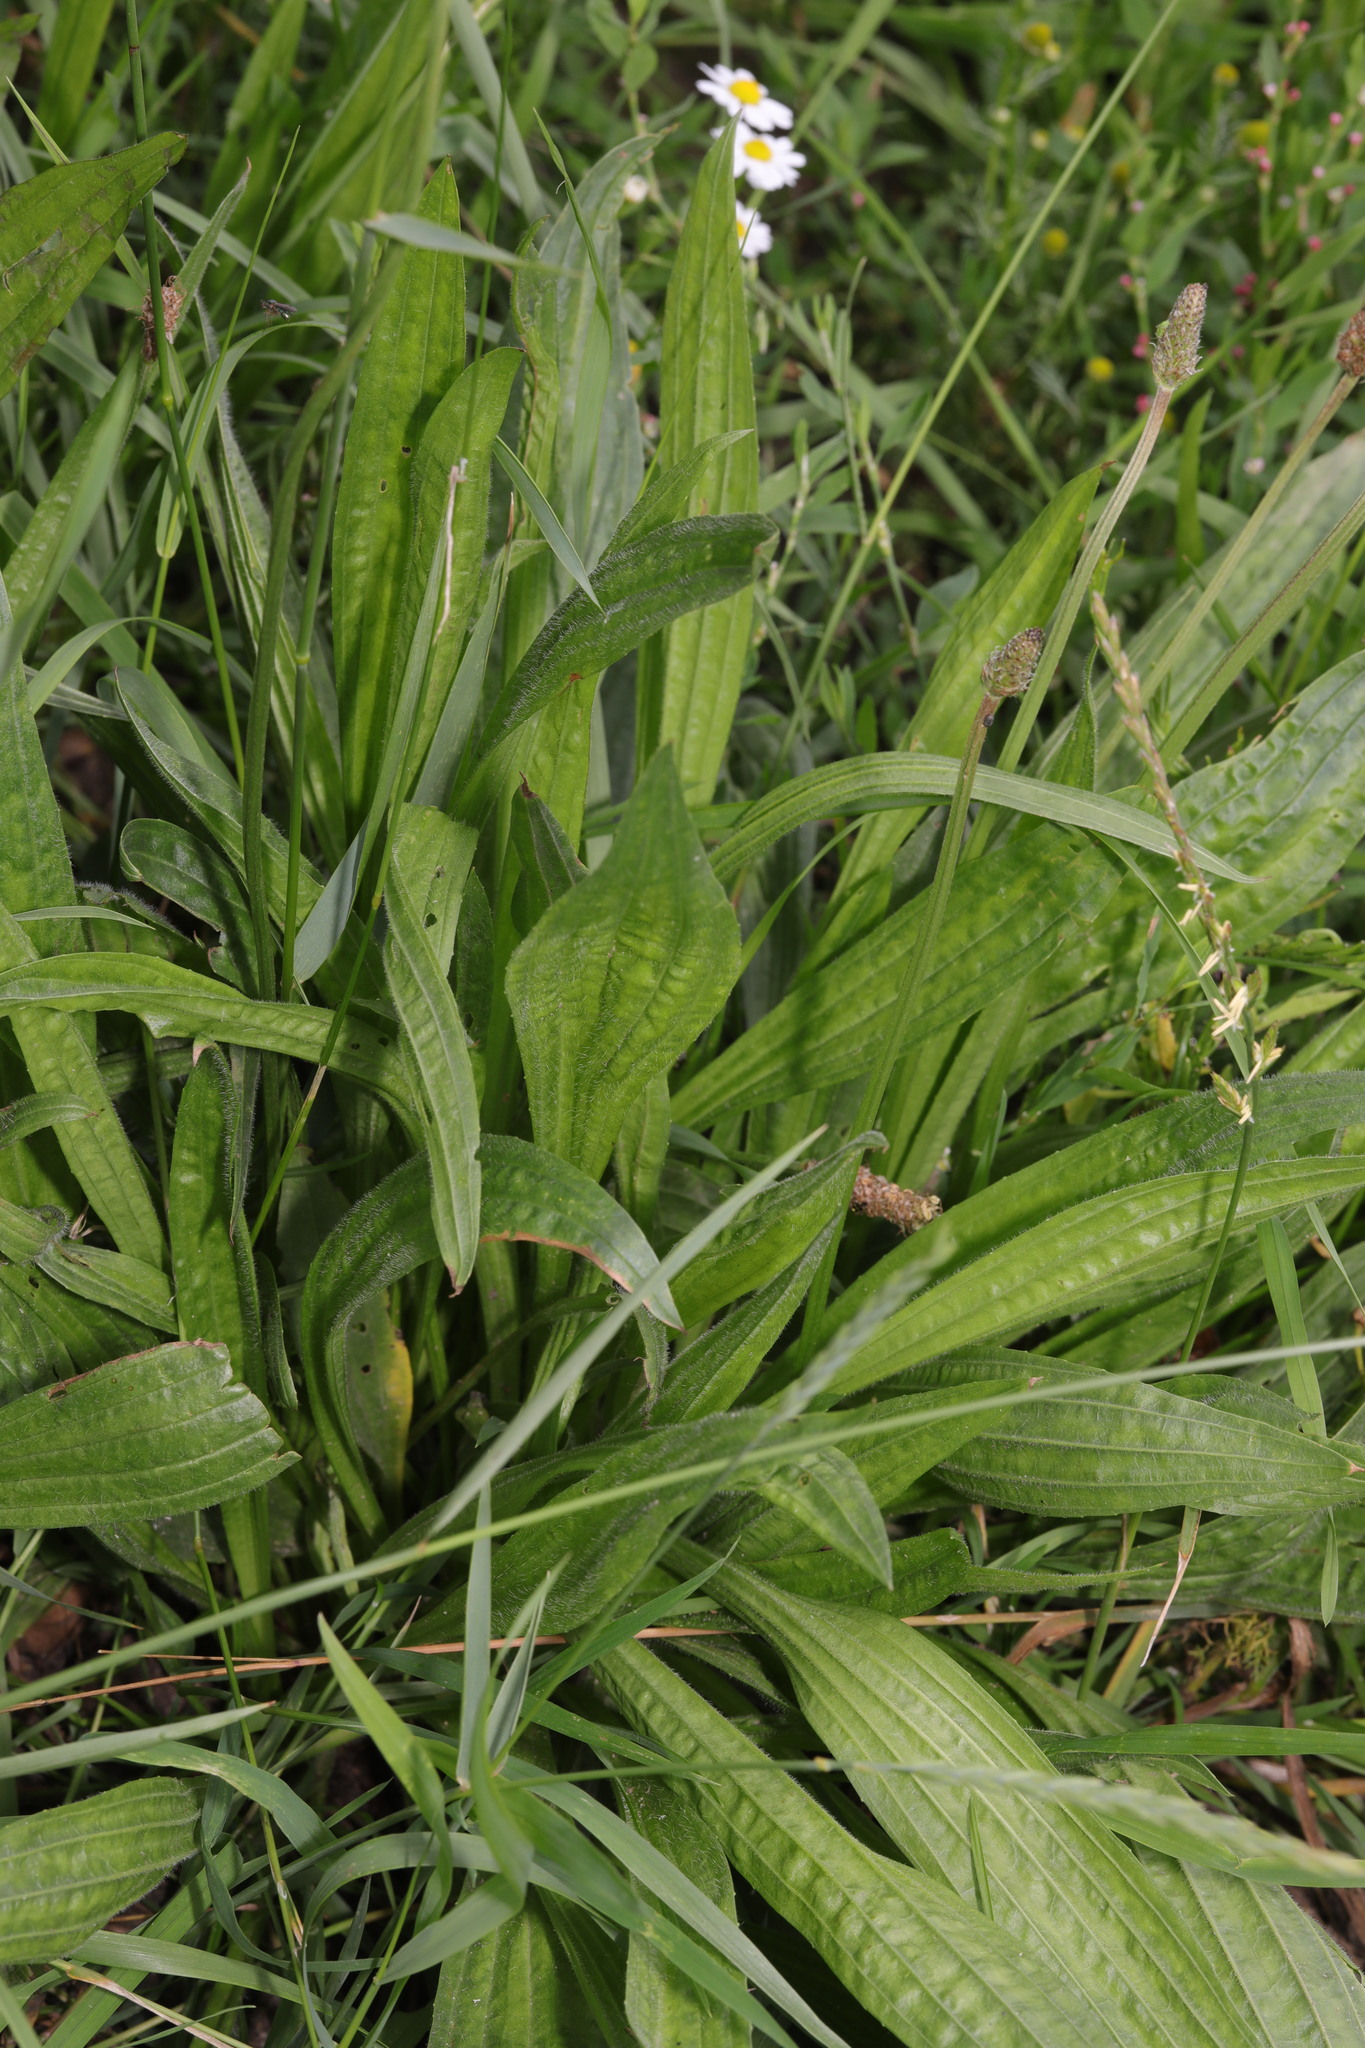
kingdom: Plantae
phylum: Tracheophyta
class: Magnoliopsida
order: Lamiales
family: Plantaginaceae
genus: Plantago
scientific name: Plantago lanceolata
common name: Ribwort plantain
